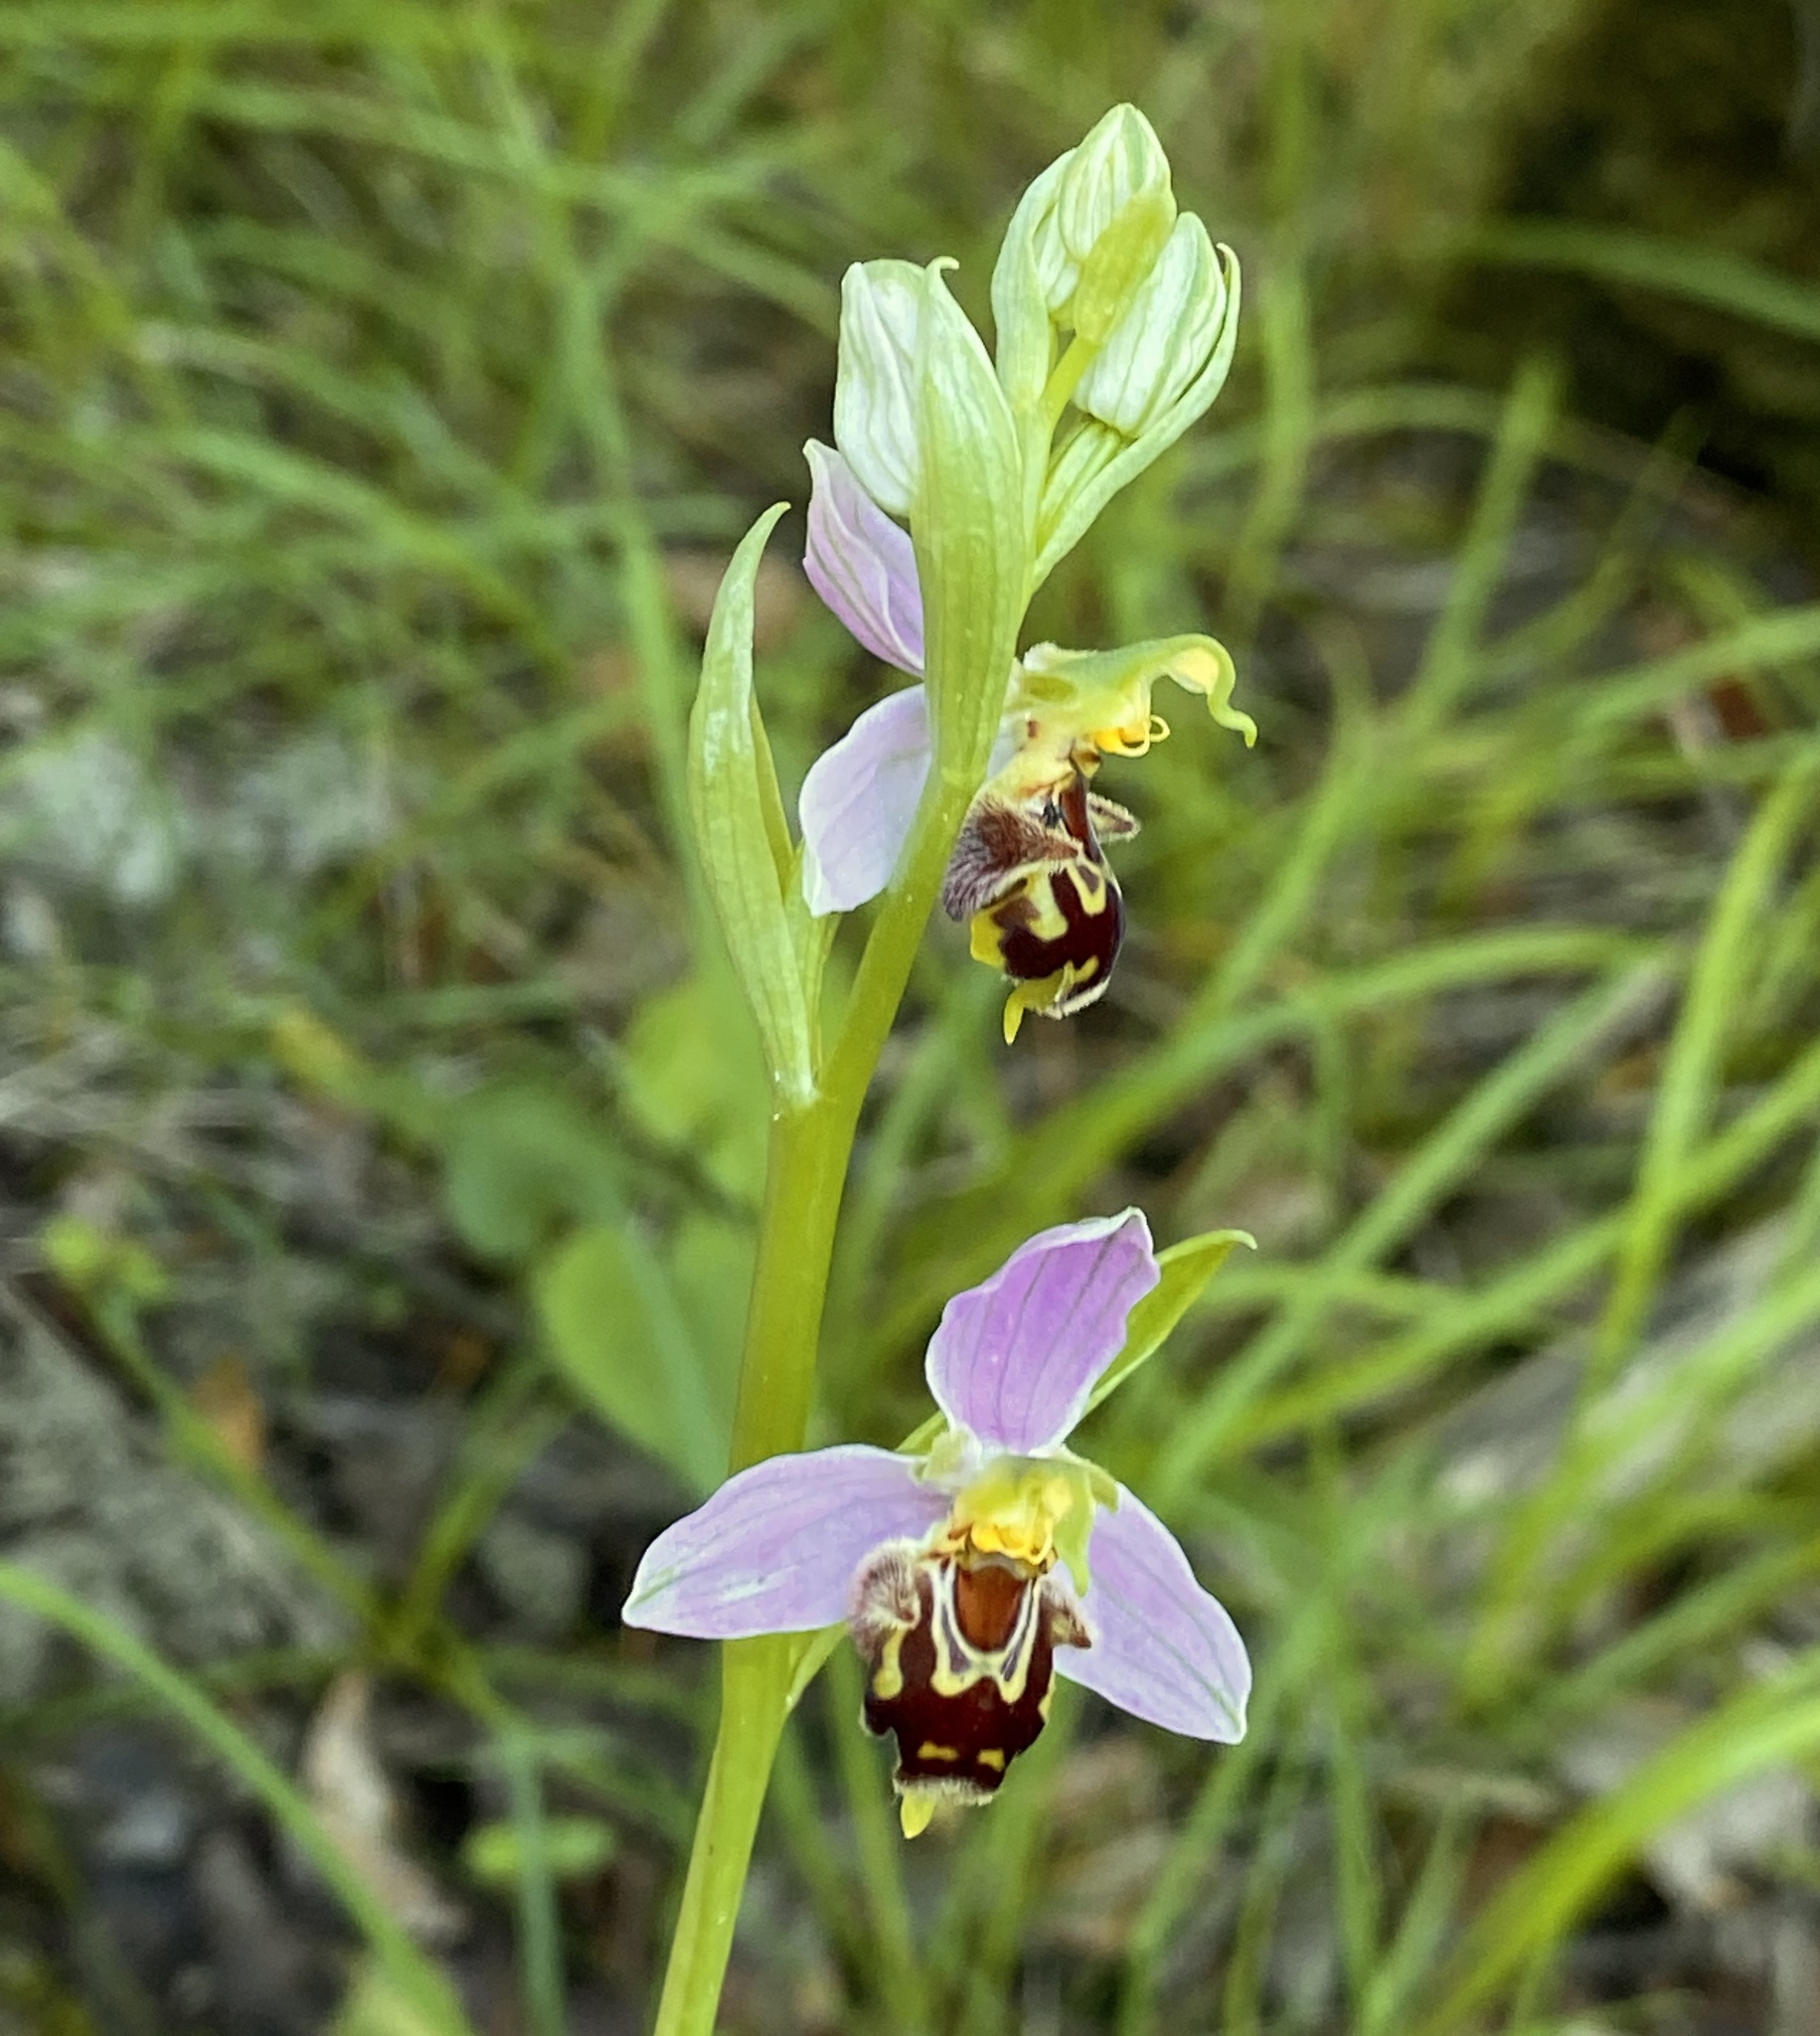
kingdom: Plantae
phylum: Tracheophyta
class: Liliopsida
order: Asparagales
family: Orchidaceae
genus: Ophrys
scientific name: Ophrys apifera
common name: Bee orchid
